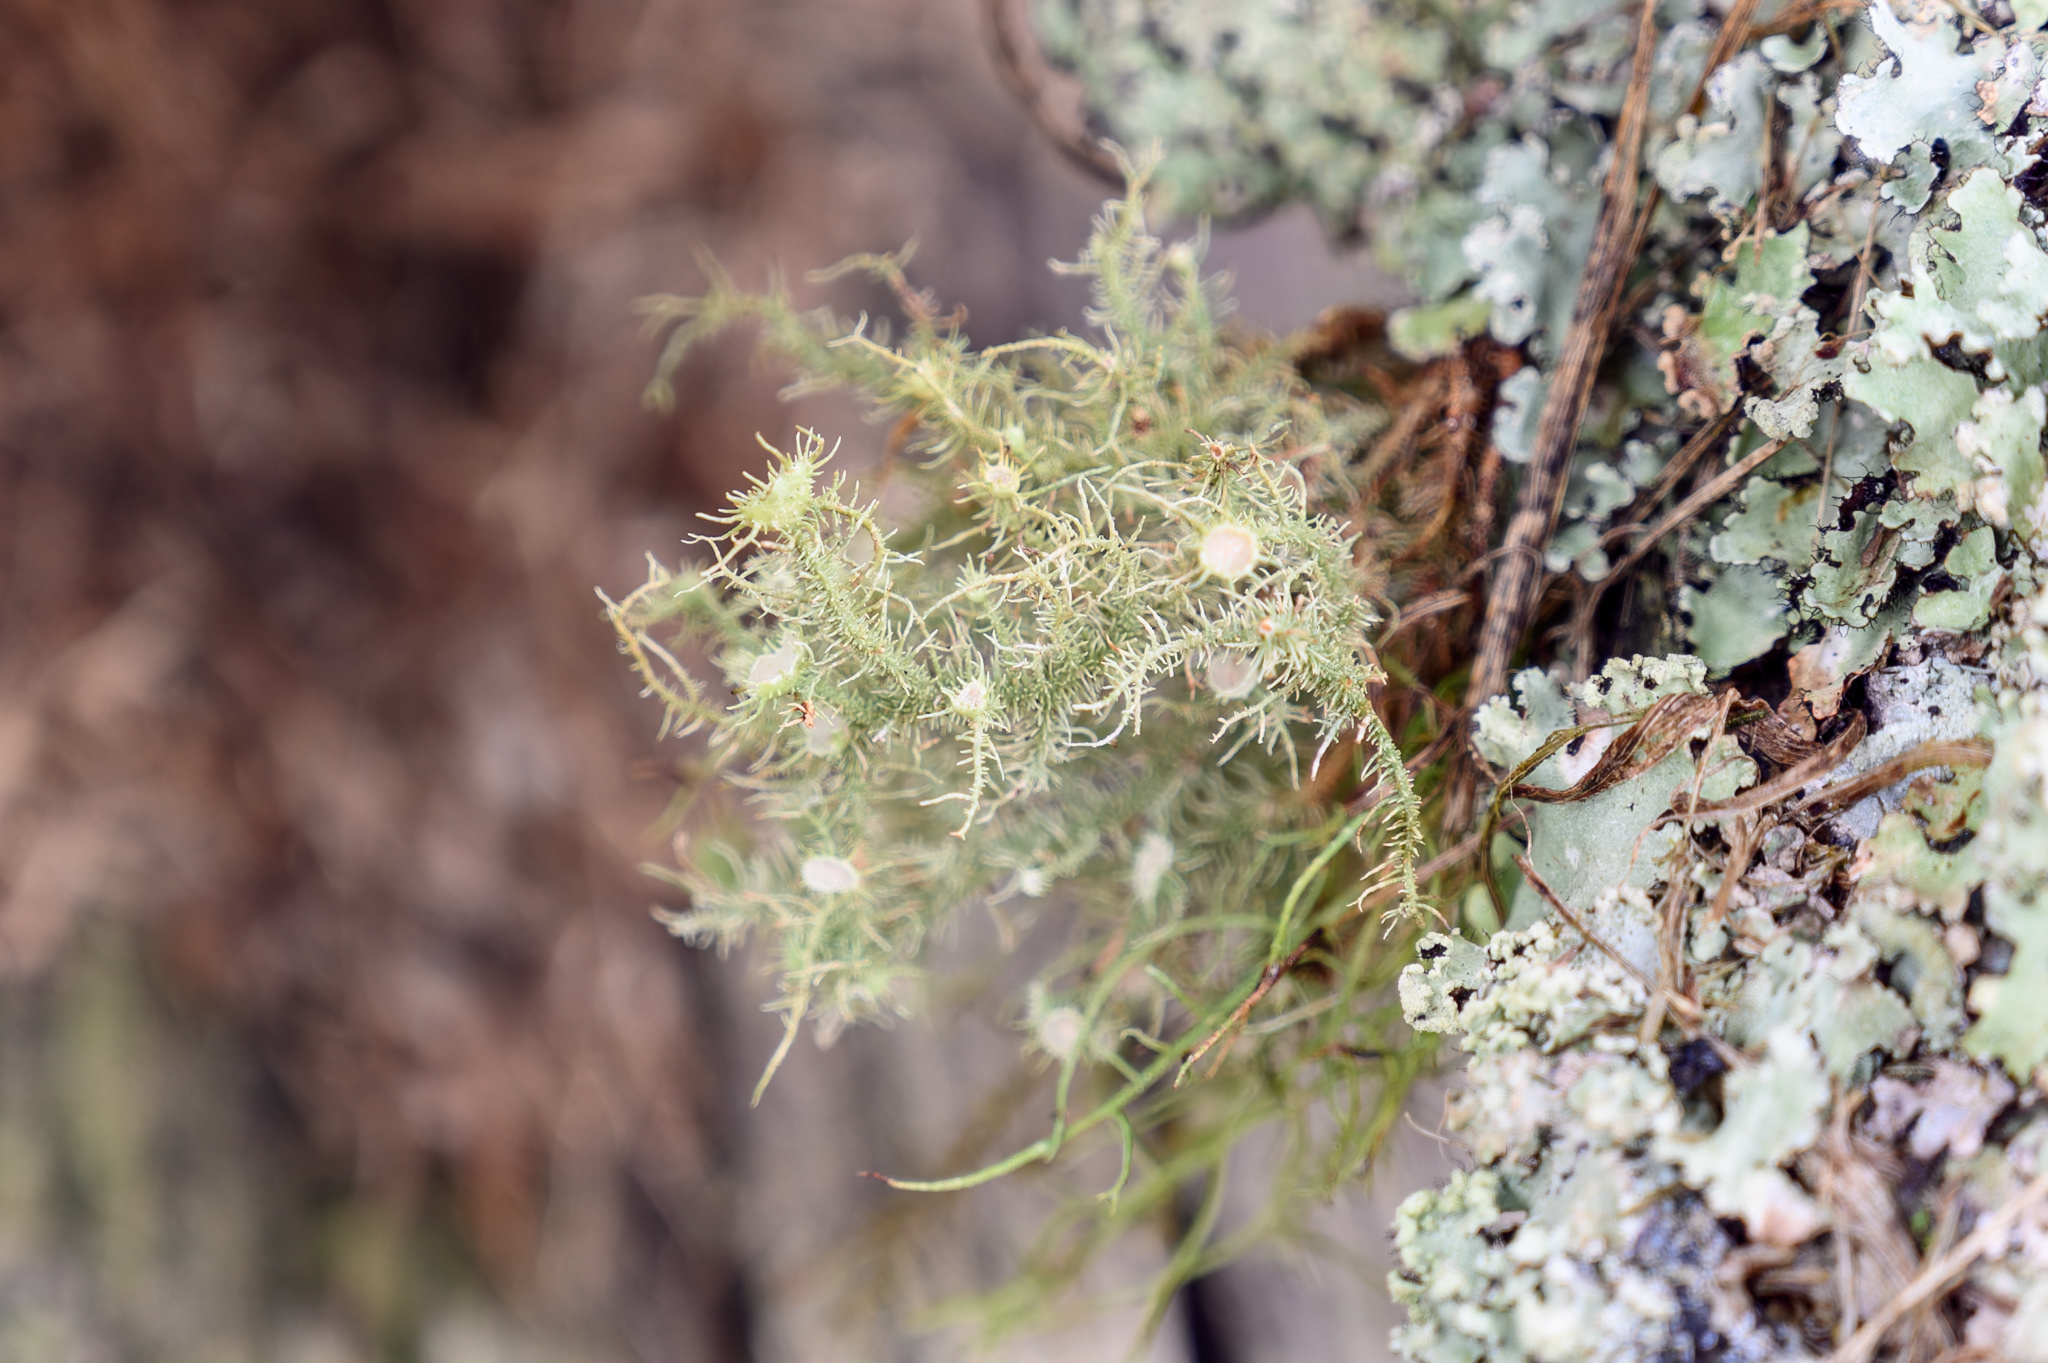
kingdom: Fungi
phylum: Ascomycota
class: Lecanoromycetes
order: Lecanorales
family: Parmeliaceae
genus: Usnea
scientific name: Usnea strigosa
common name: Bushy beard lichen
